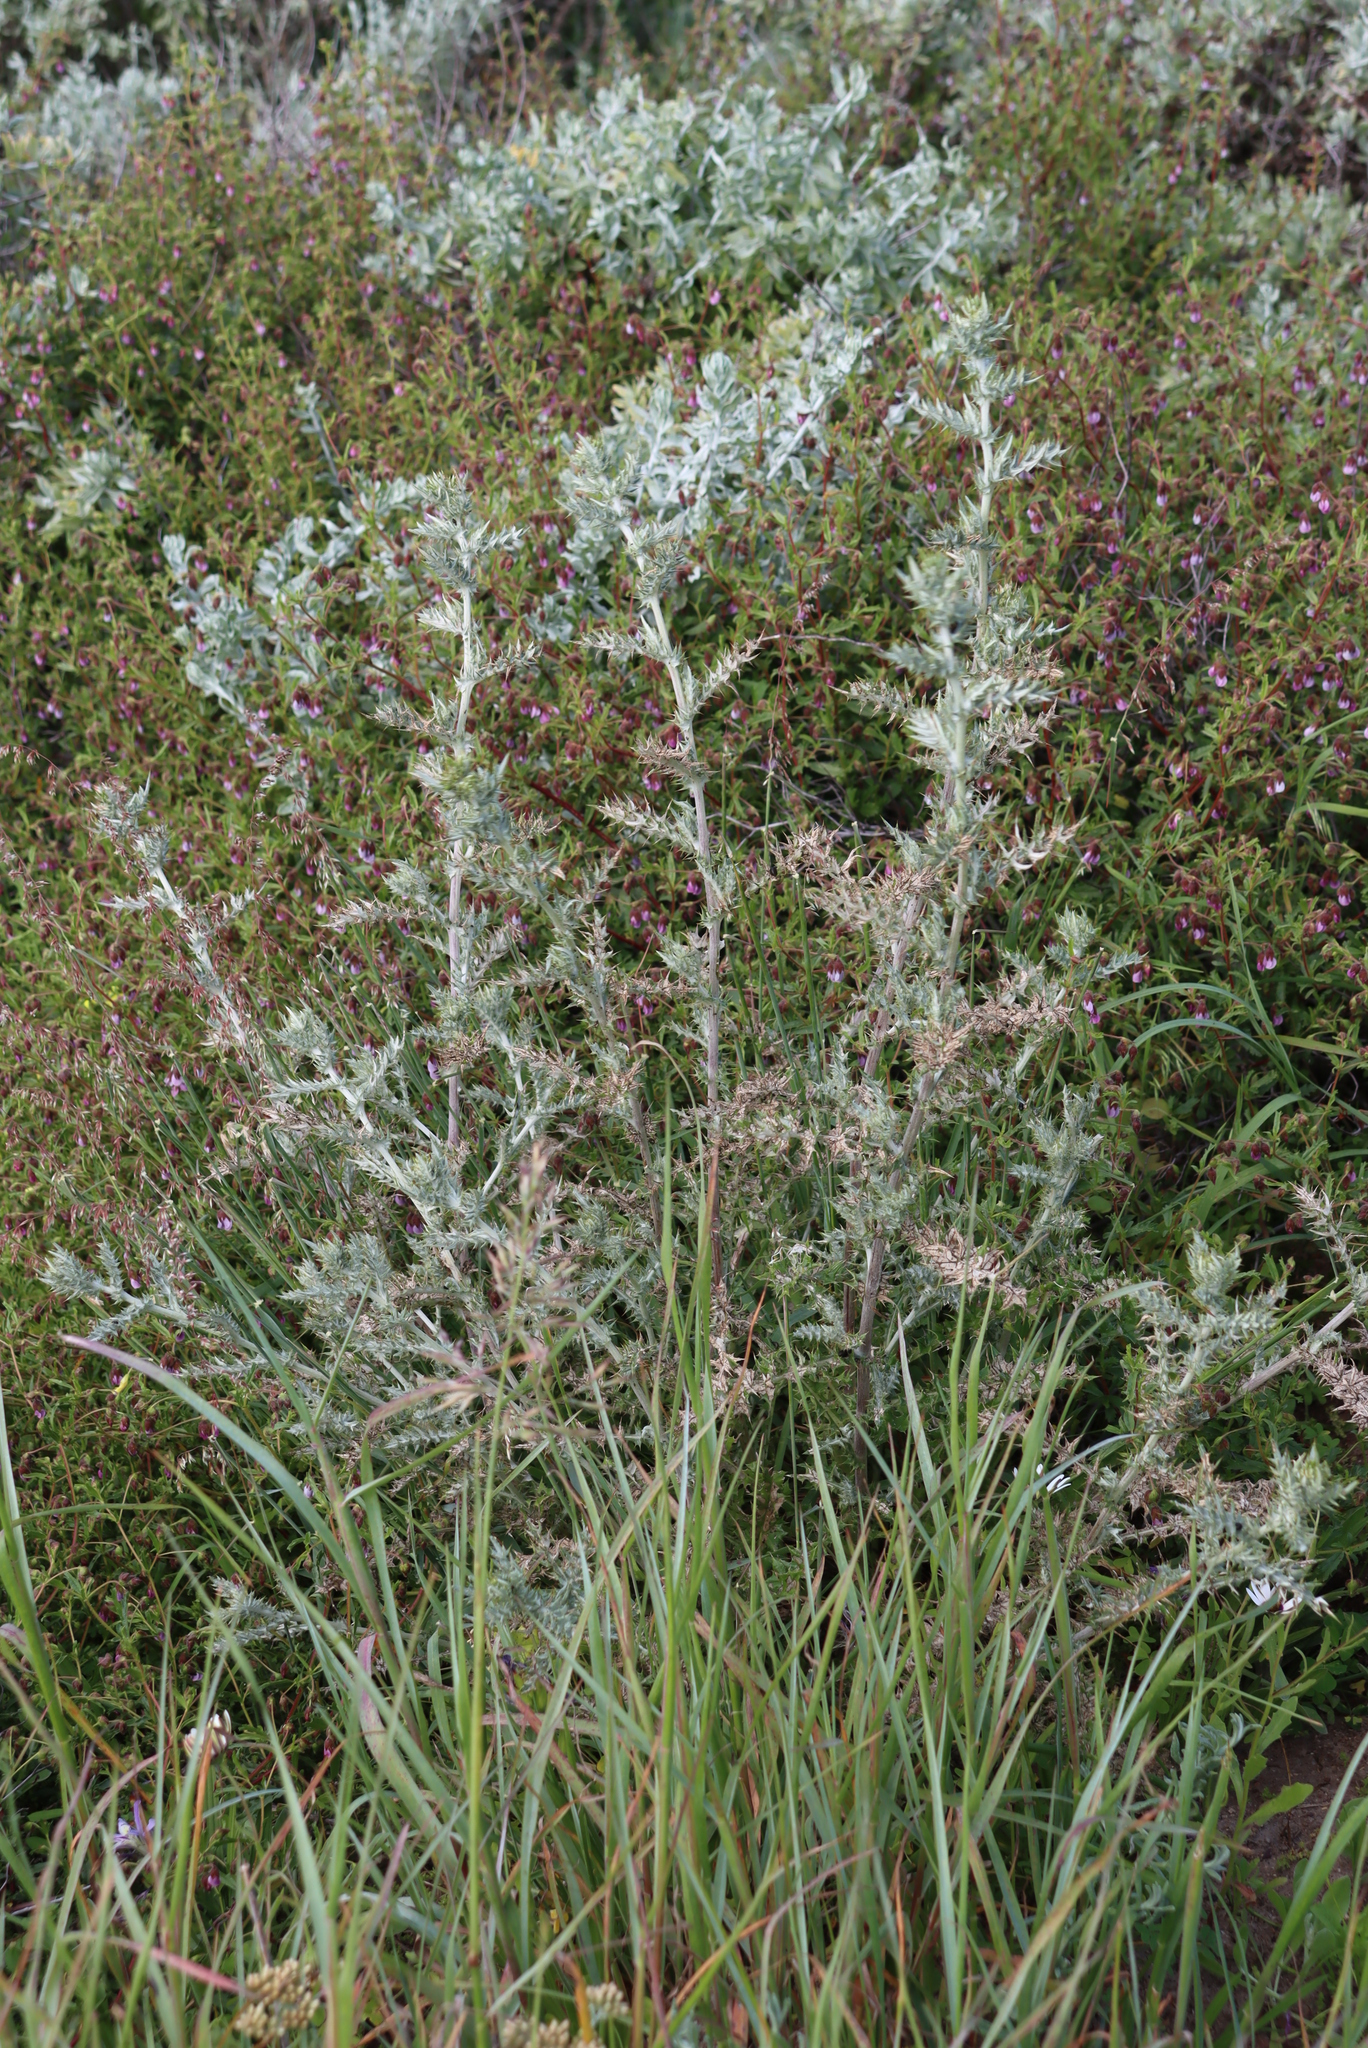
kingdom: Plantae
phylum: Tracheophyta
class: Magnoliopsida
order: Asterales
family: Asteraceae
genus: Berkheya
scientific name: Berkheya rigida
